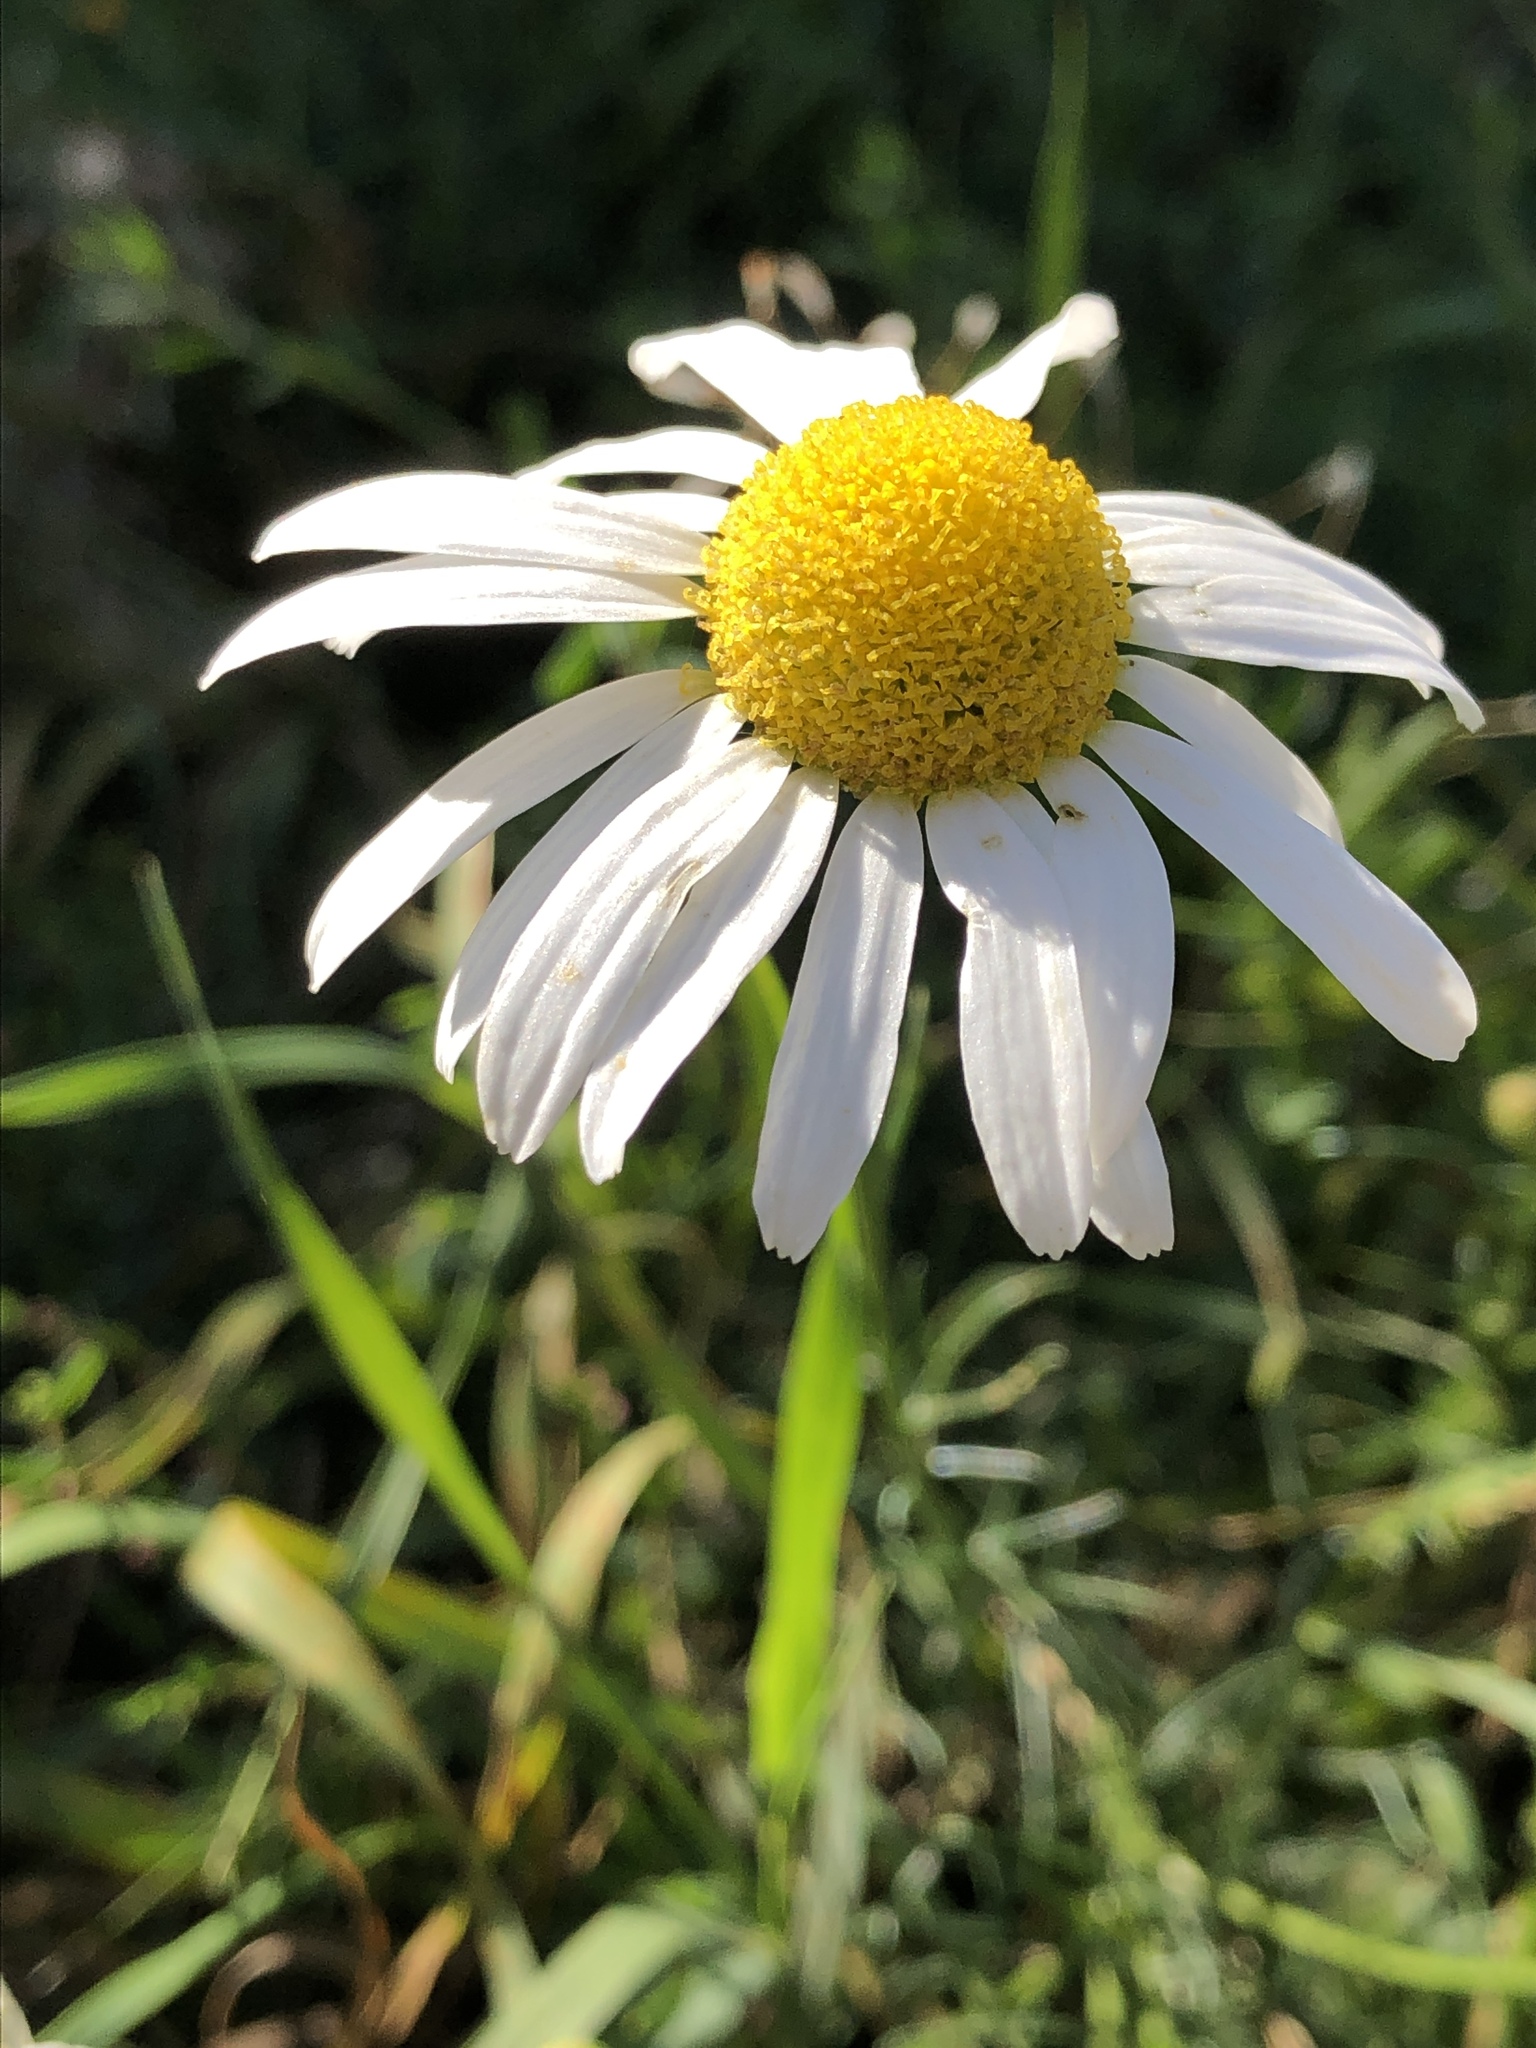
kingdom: Plantae
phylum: Tracheophyta
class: Magnoliopsida
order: Asterales
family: Asteraceae
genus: Matricaria
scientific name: Matricaria chamomilla
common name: Scented mayweed
